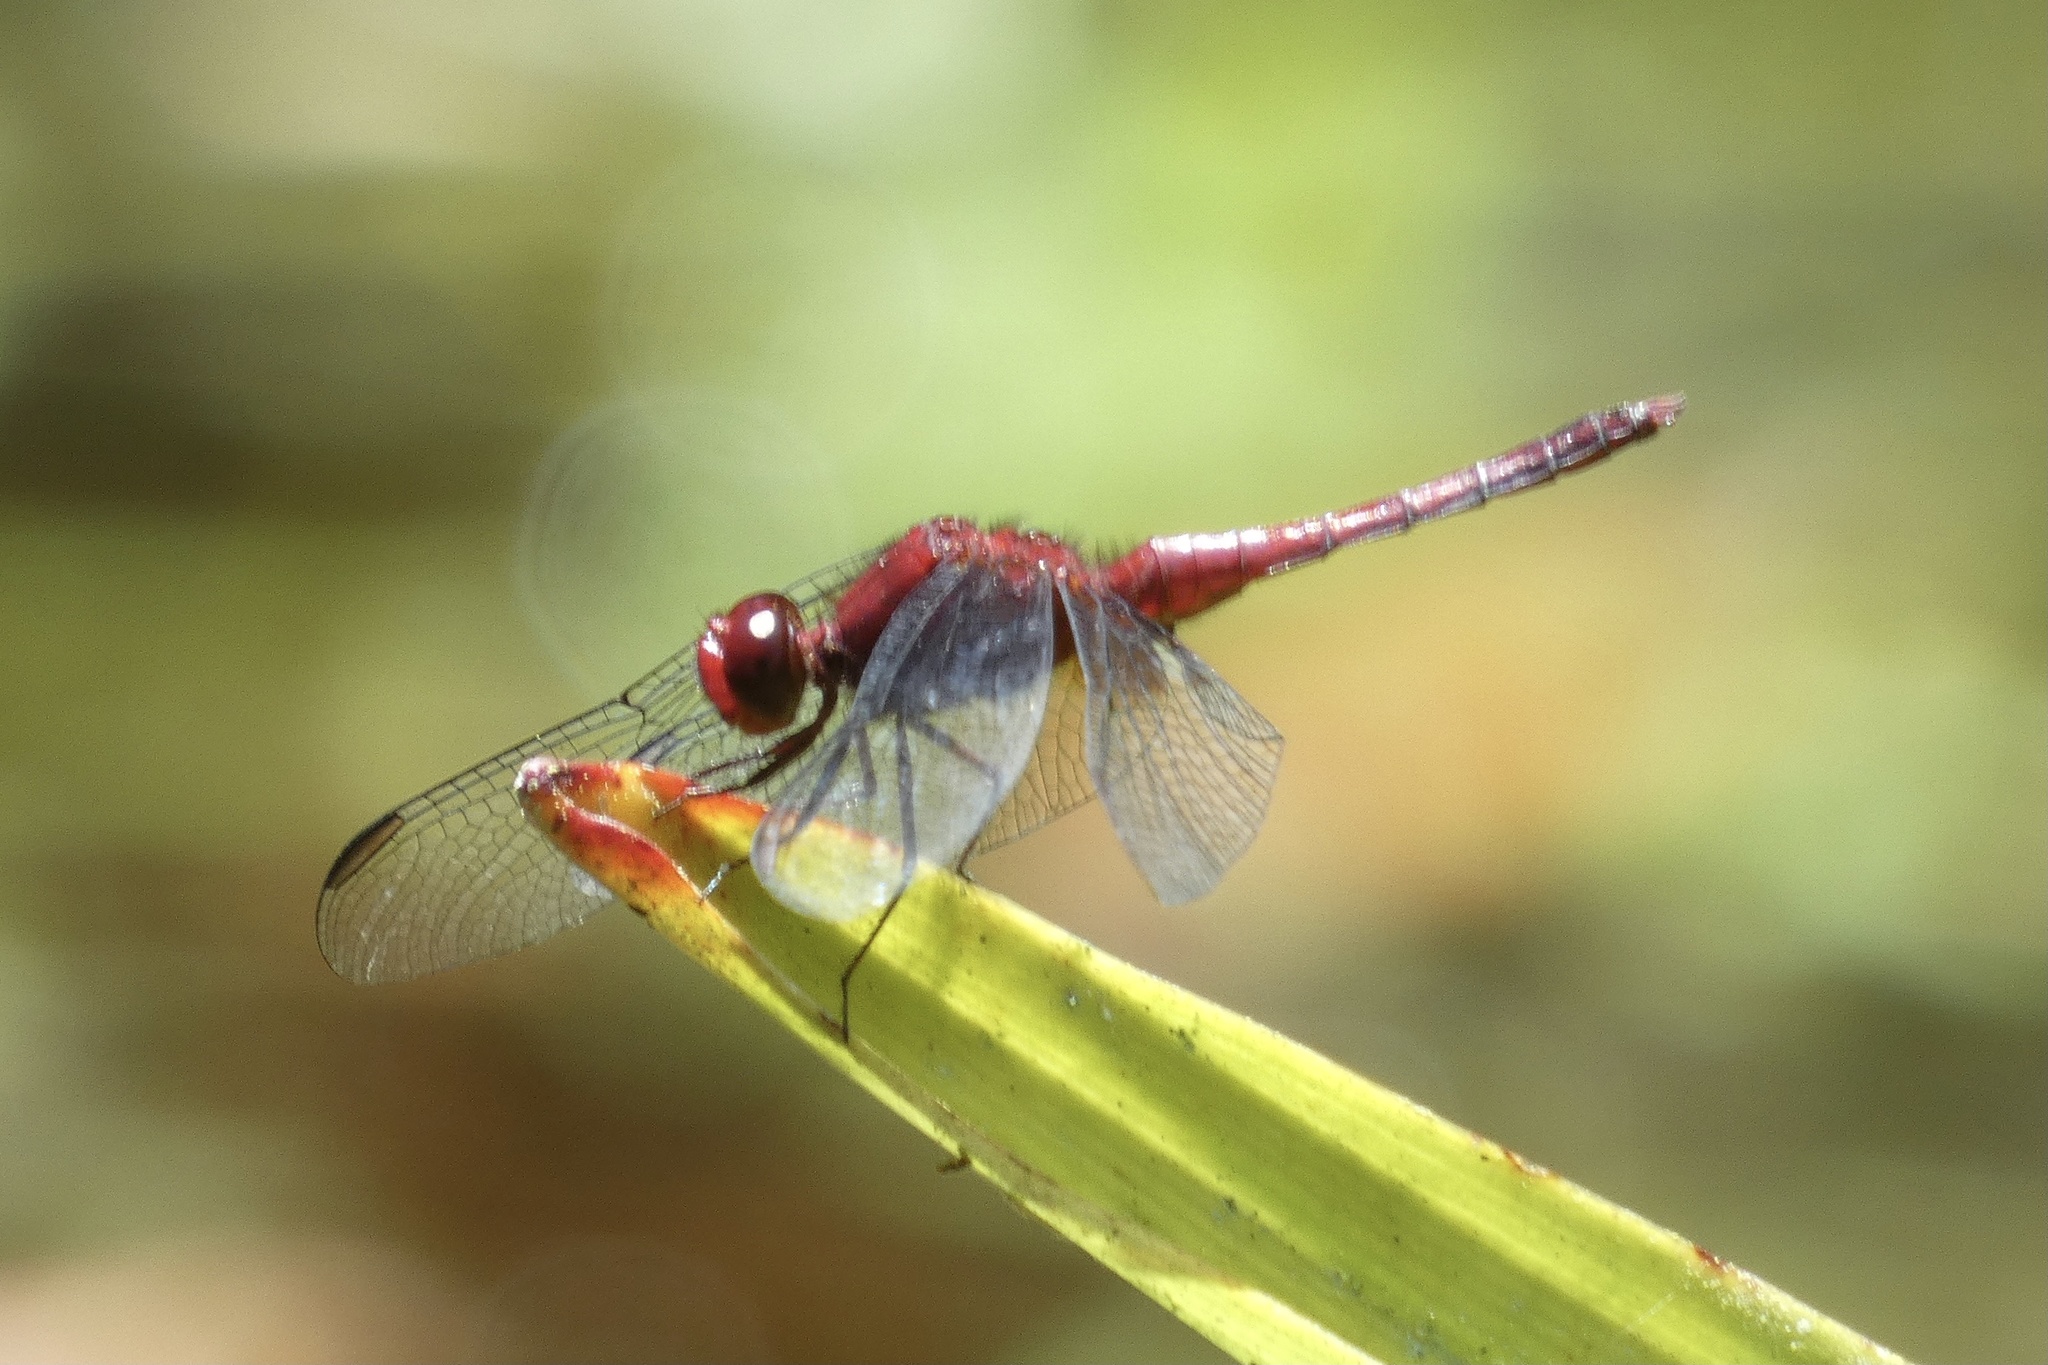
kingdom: Animalia
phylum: Arthropoda
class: Insecta
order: Odonata
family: Libellulidae
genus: Erythrodiplax
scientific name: Erythrodiplax fusca
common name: Red-faced dragonlet
